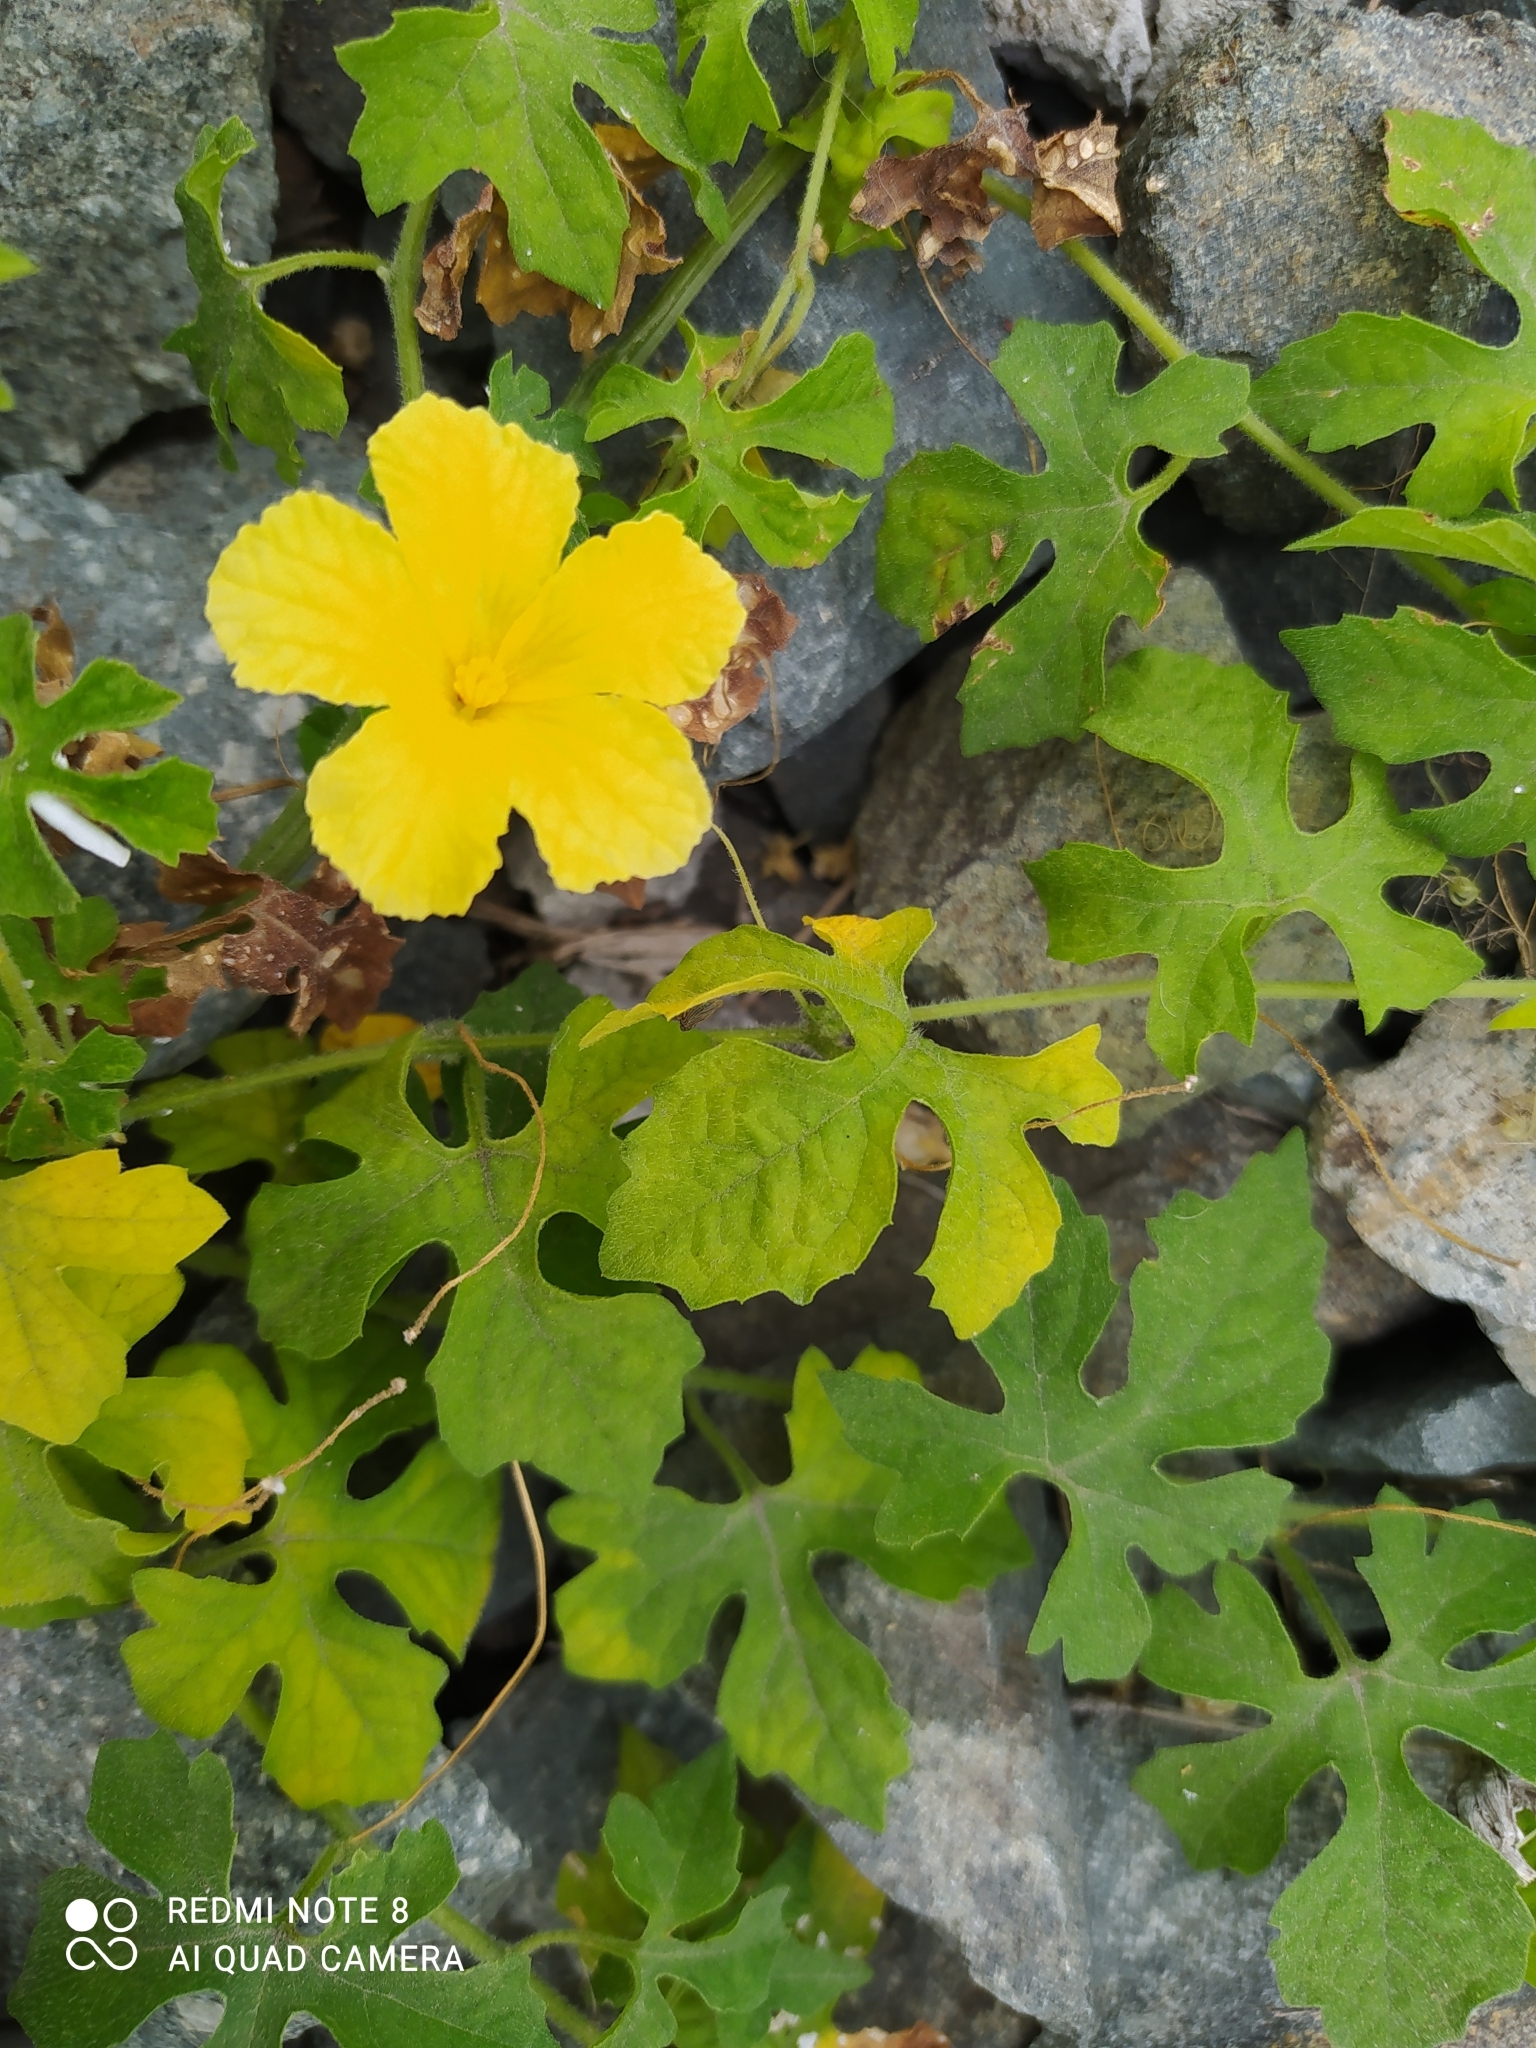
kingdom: Plantae
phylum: Tracheophyta
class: Magnoliopsida
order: Cucurbitales
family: Cucurbitaceae
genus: Momordica
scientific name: Momordica charantia
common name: Balsampear
